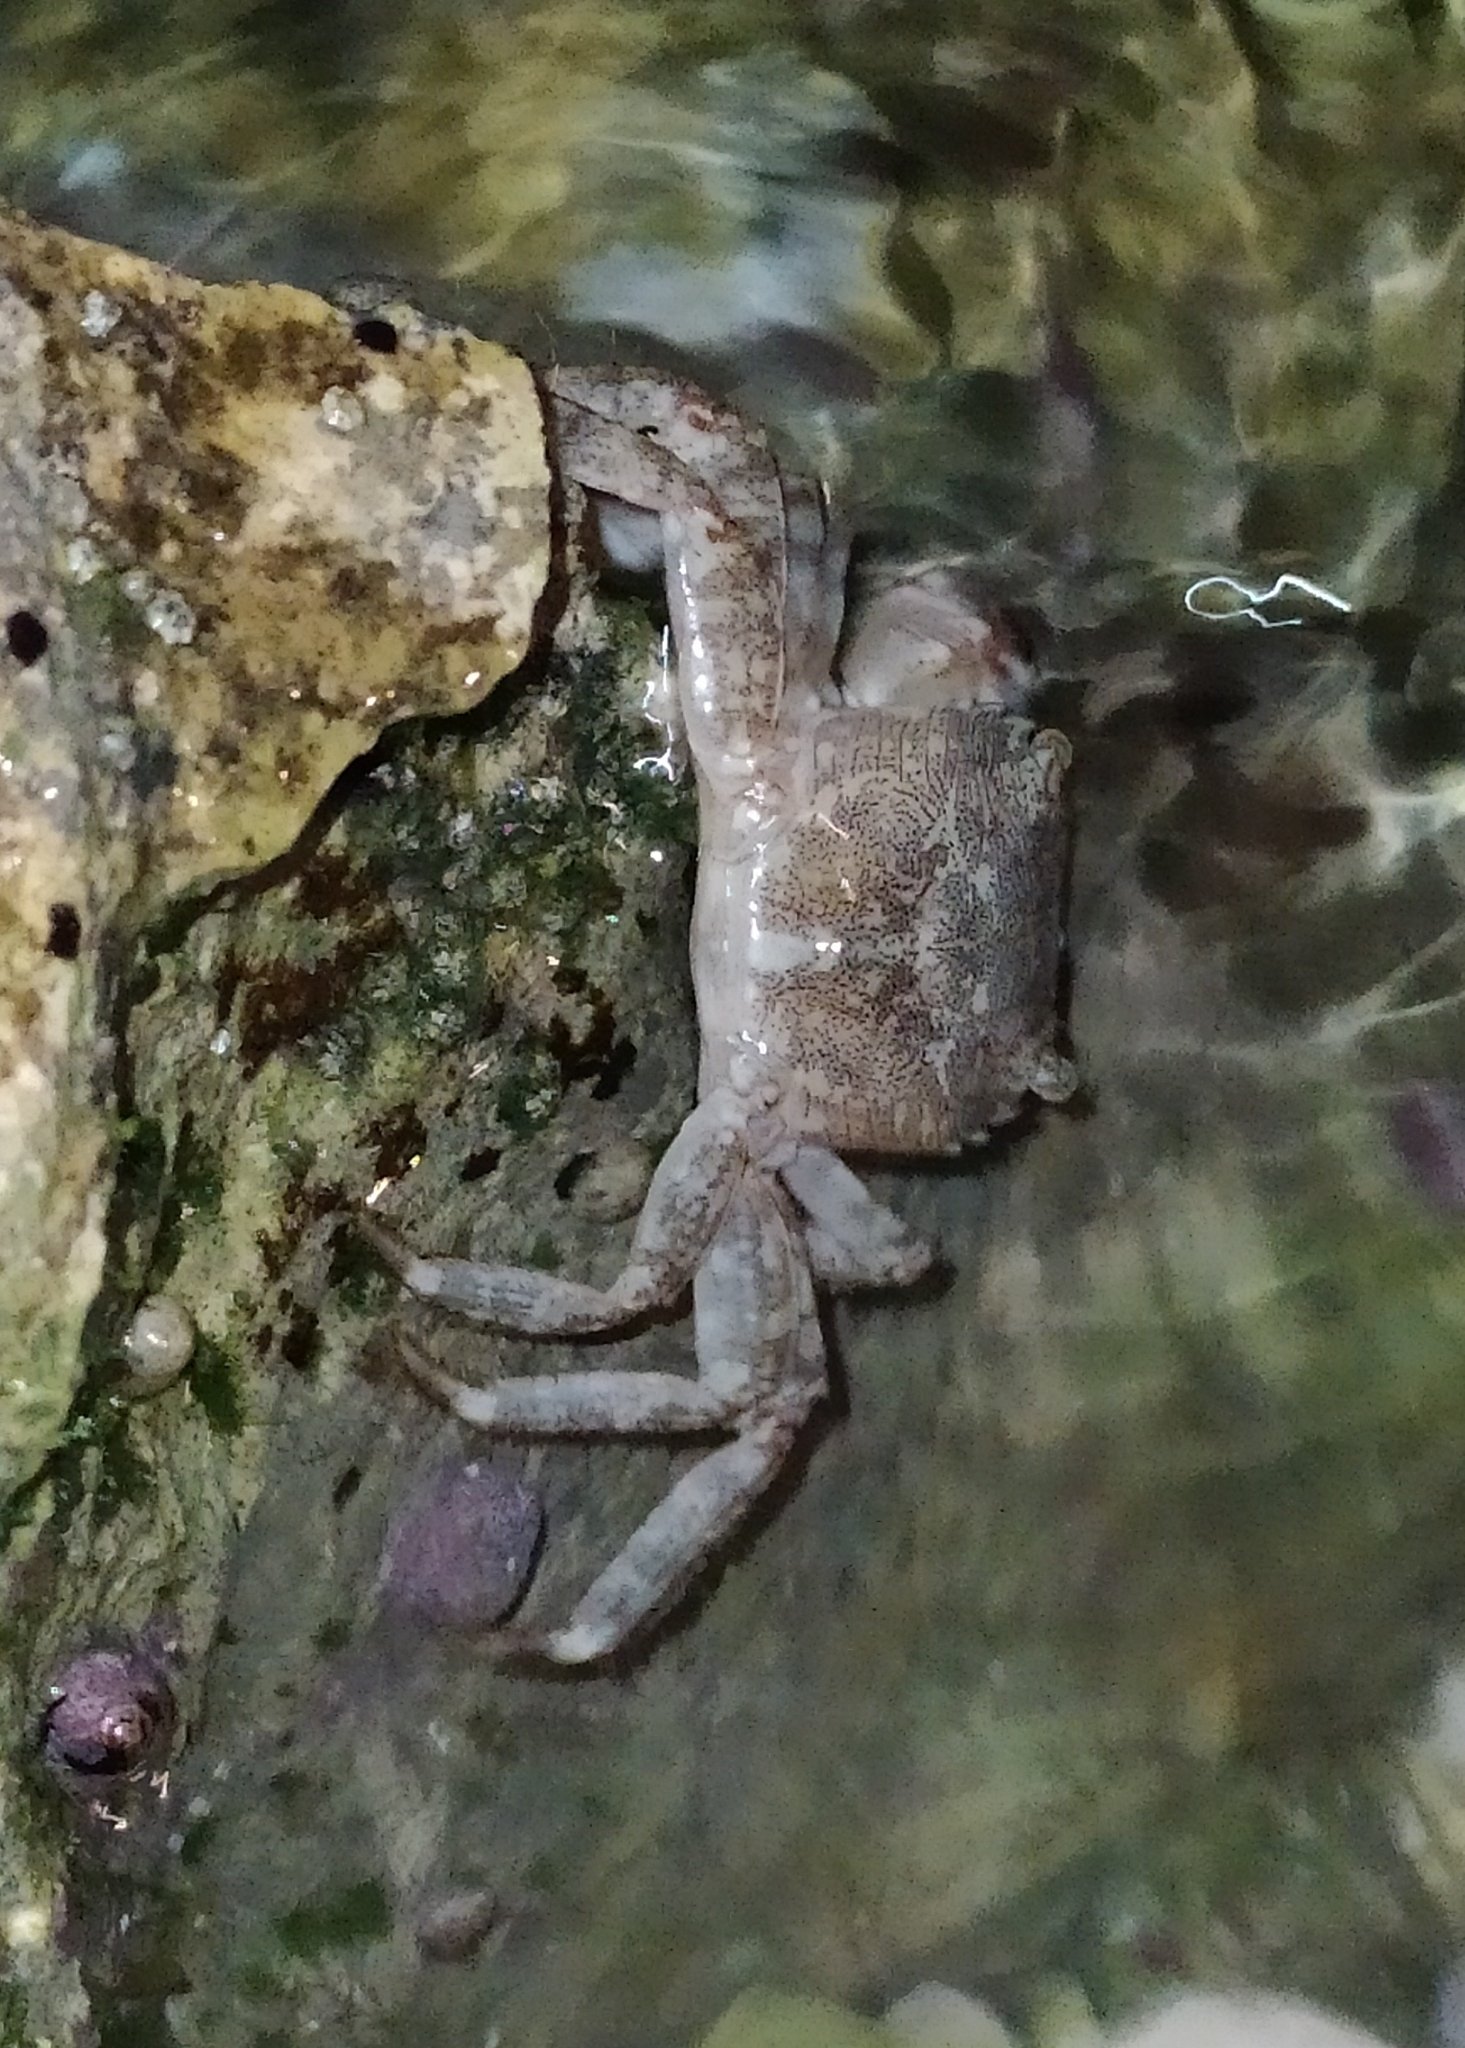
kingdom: Animalia
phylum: Arthropoda
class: Malacostraca
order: Decapoda
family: Grapsidae
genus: Pachygrapsus
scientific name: Pachygrapsus marmoratus
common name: Marbled rock crab
